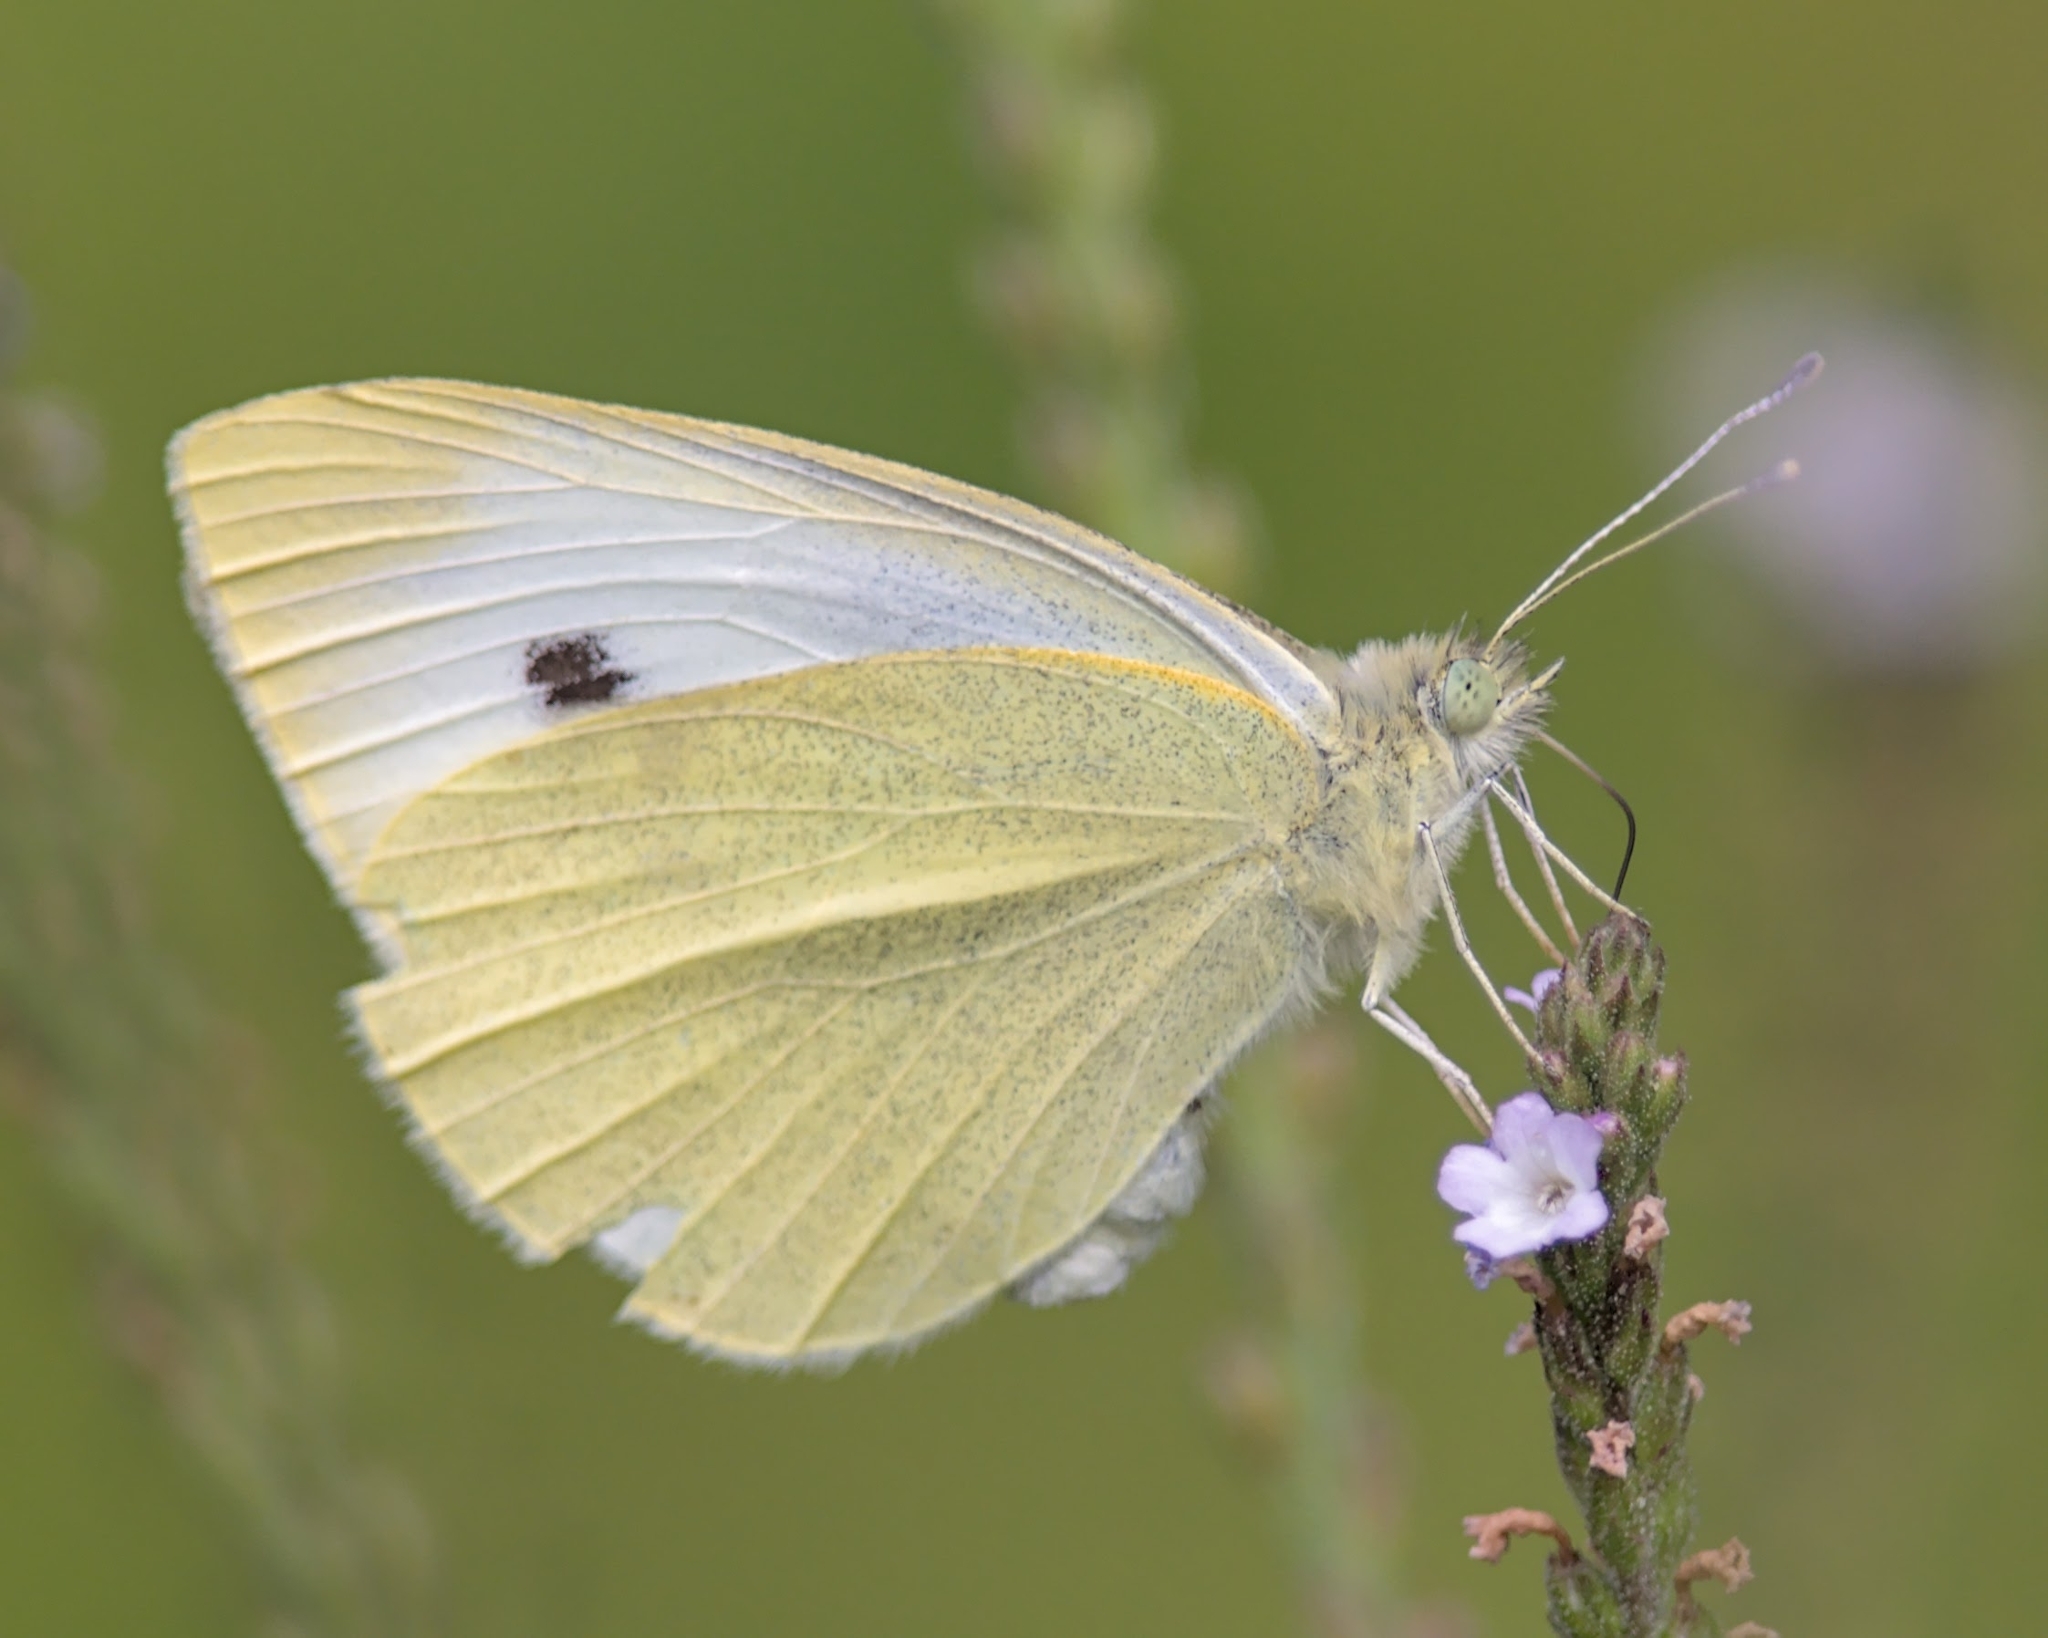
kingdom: Animalia
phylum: Arthropoda
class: Insecta
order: Lepidoptera
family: Pieridae
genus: Pieris
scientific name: Pieris rapae
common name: Small white
